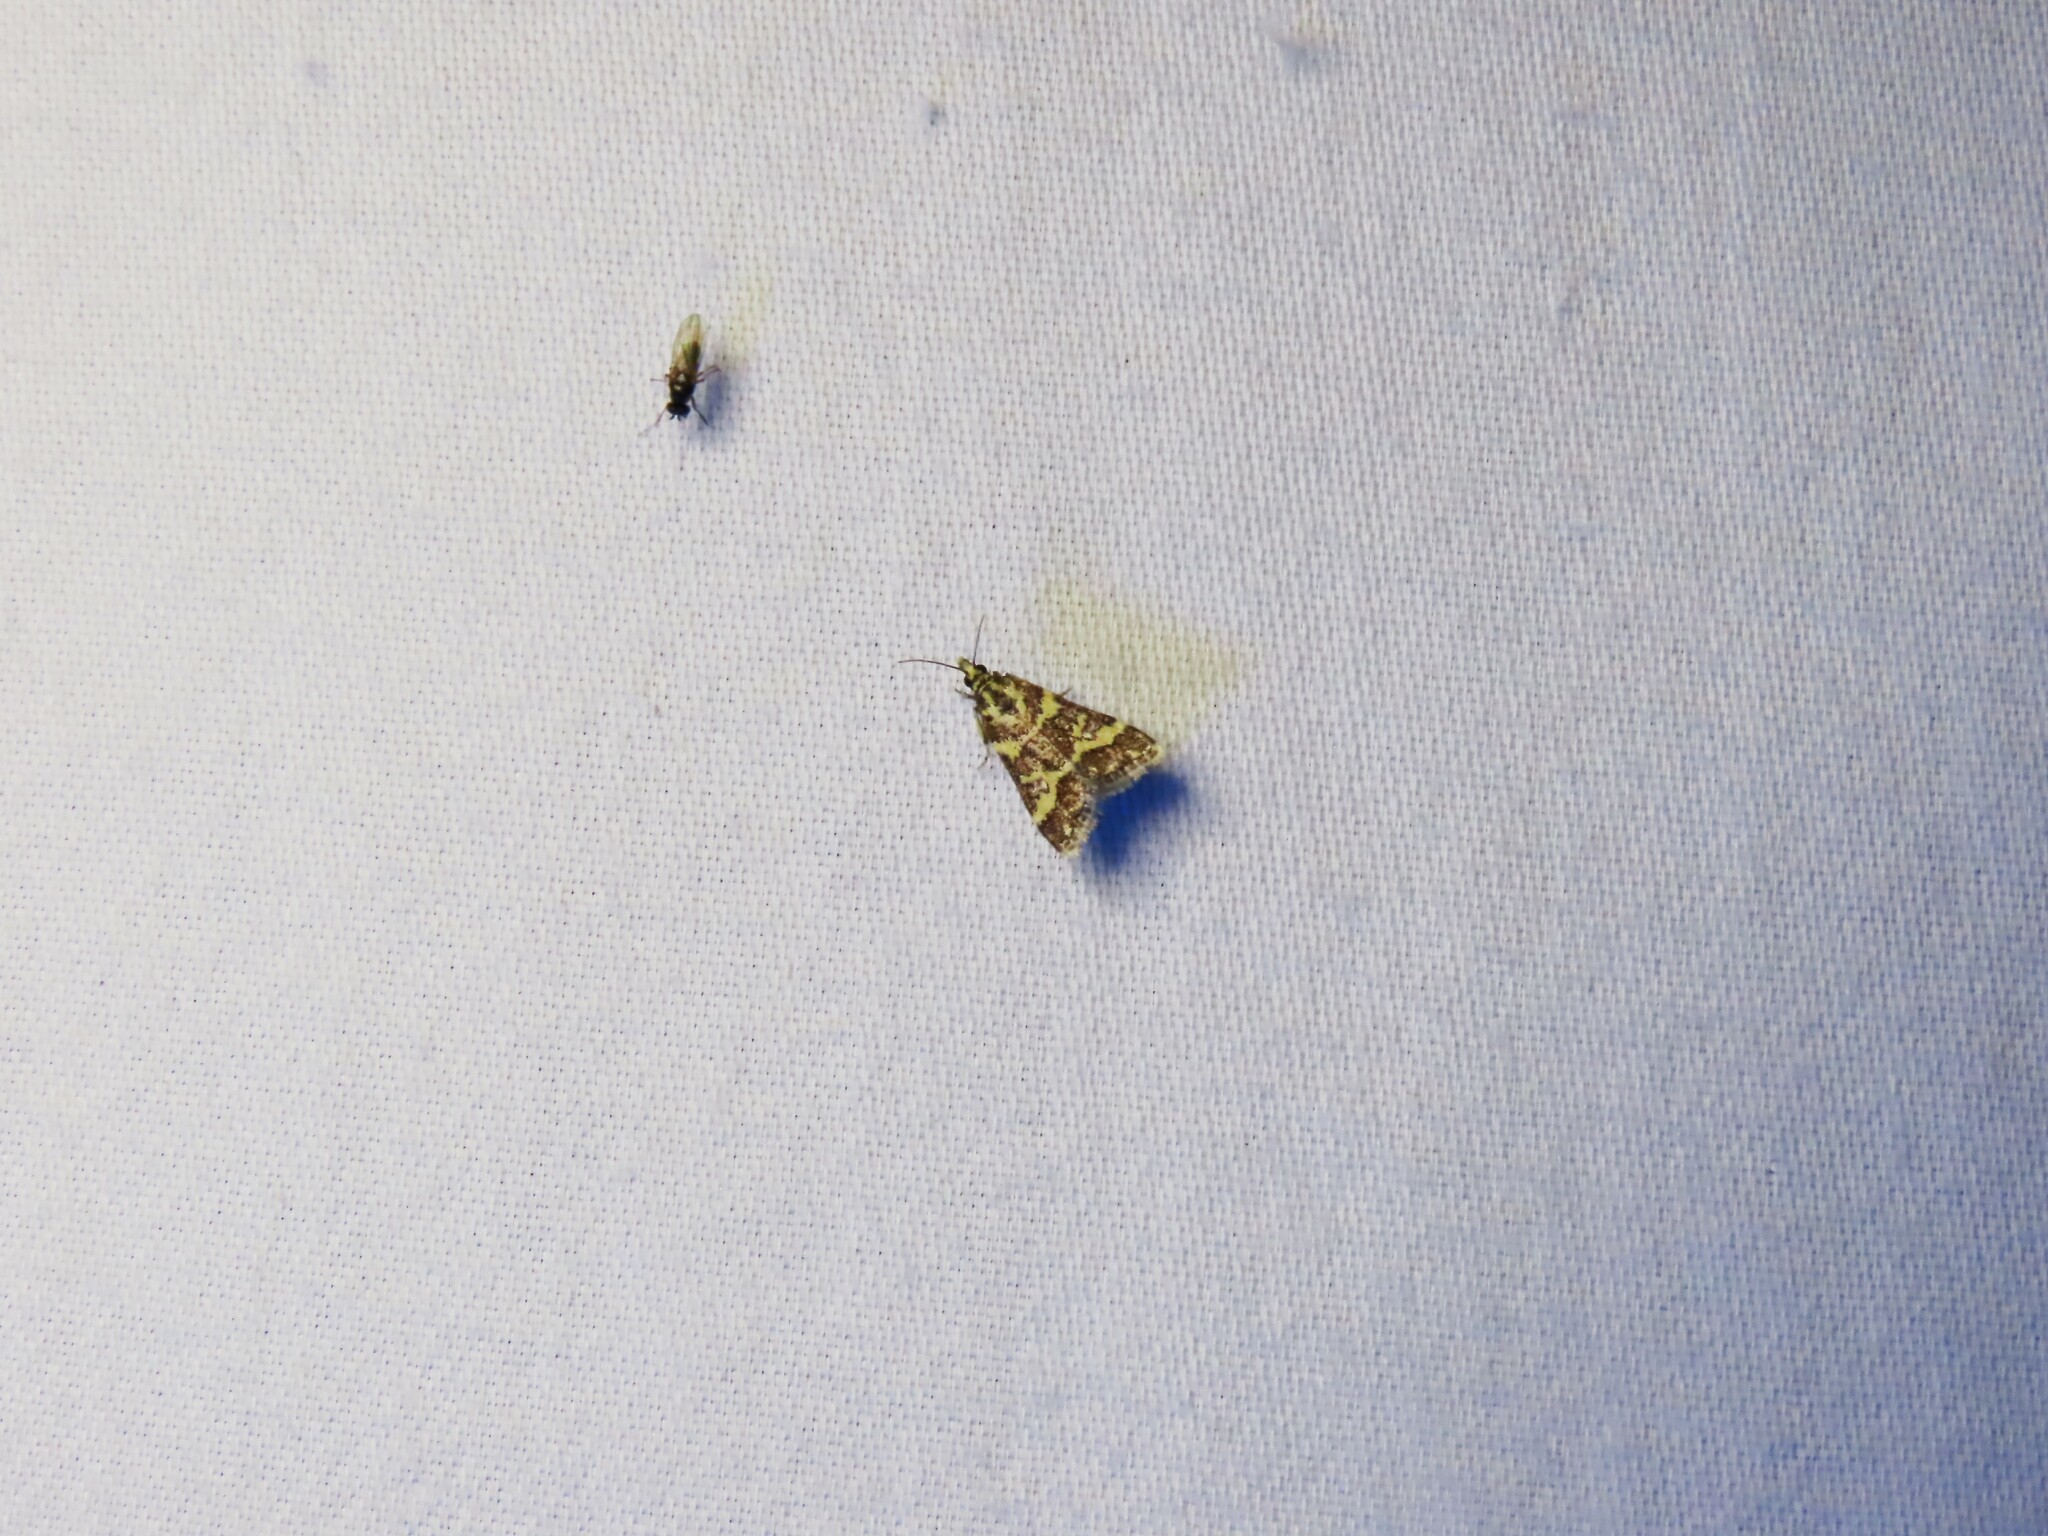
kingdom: Animalia
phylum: Arthropoda
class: Insecta
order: Lepidoptera
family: Crambidae
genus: Scoparia
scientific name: Scoparia spelaea
